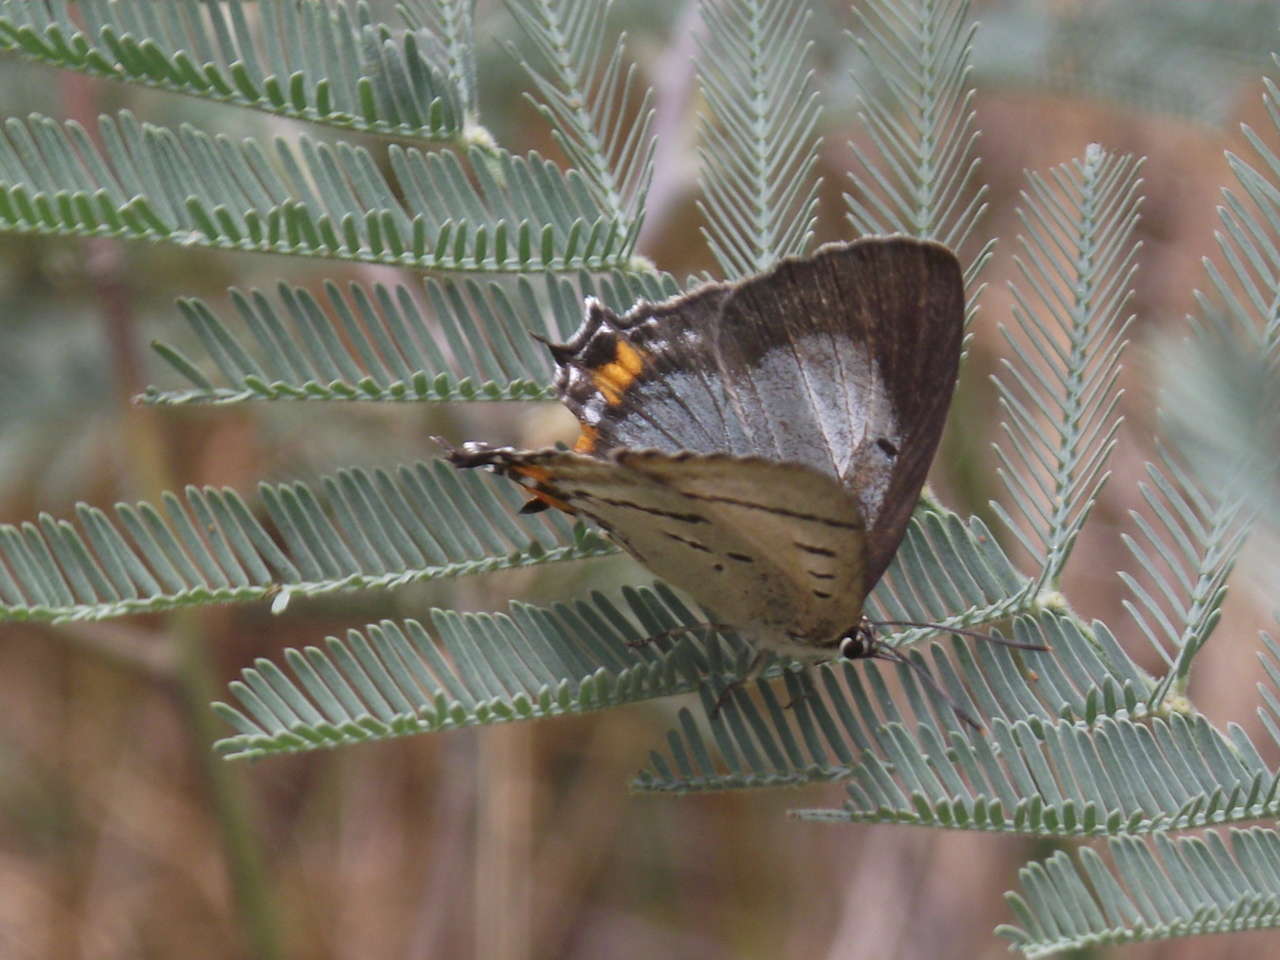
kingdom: Animalia
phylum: Arthropoda
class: Insecta
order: Lepidoptera
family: Lycaenidae
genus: Jalmenus
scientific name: Jalmenus evagoras
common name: Common imperial blue
